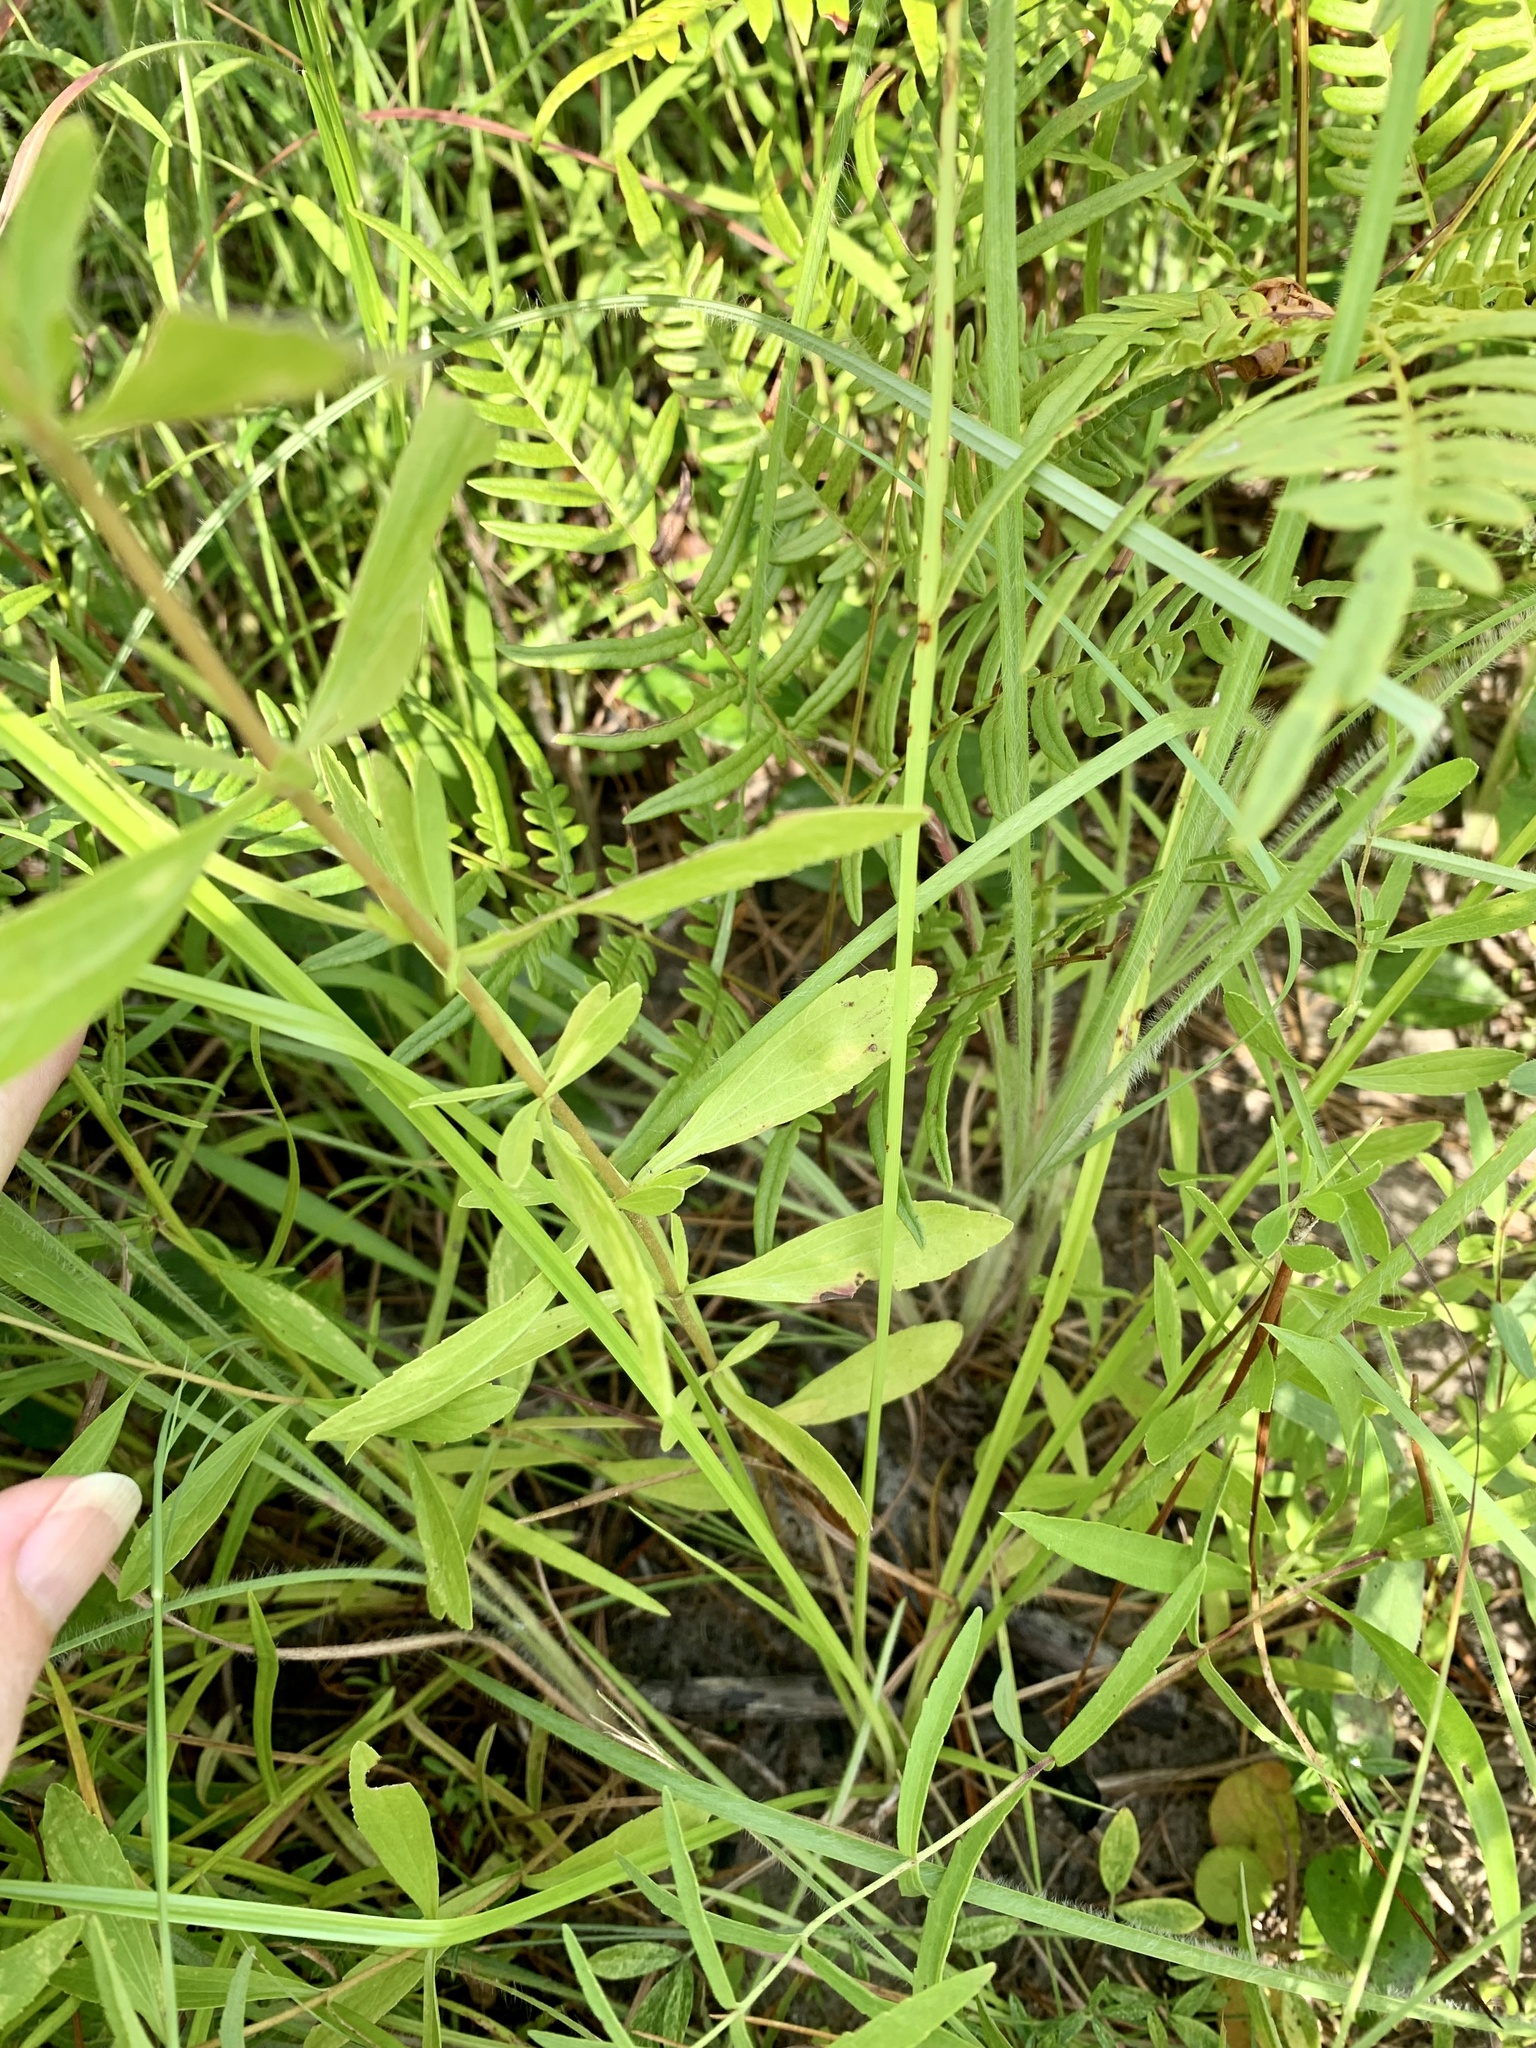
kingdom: Plantae
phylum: Tracheophyta
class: Magnoliopsida
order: Asterales
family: Asteraceae
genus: Eupatorium
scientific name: Eupatorium semiserratum
